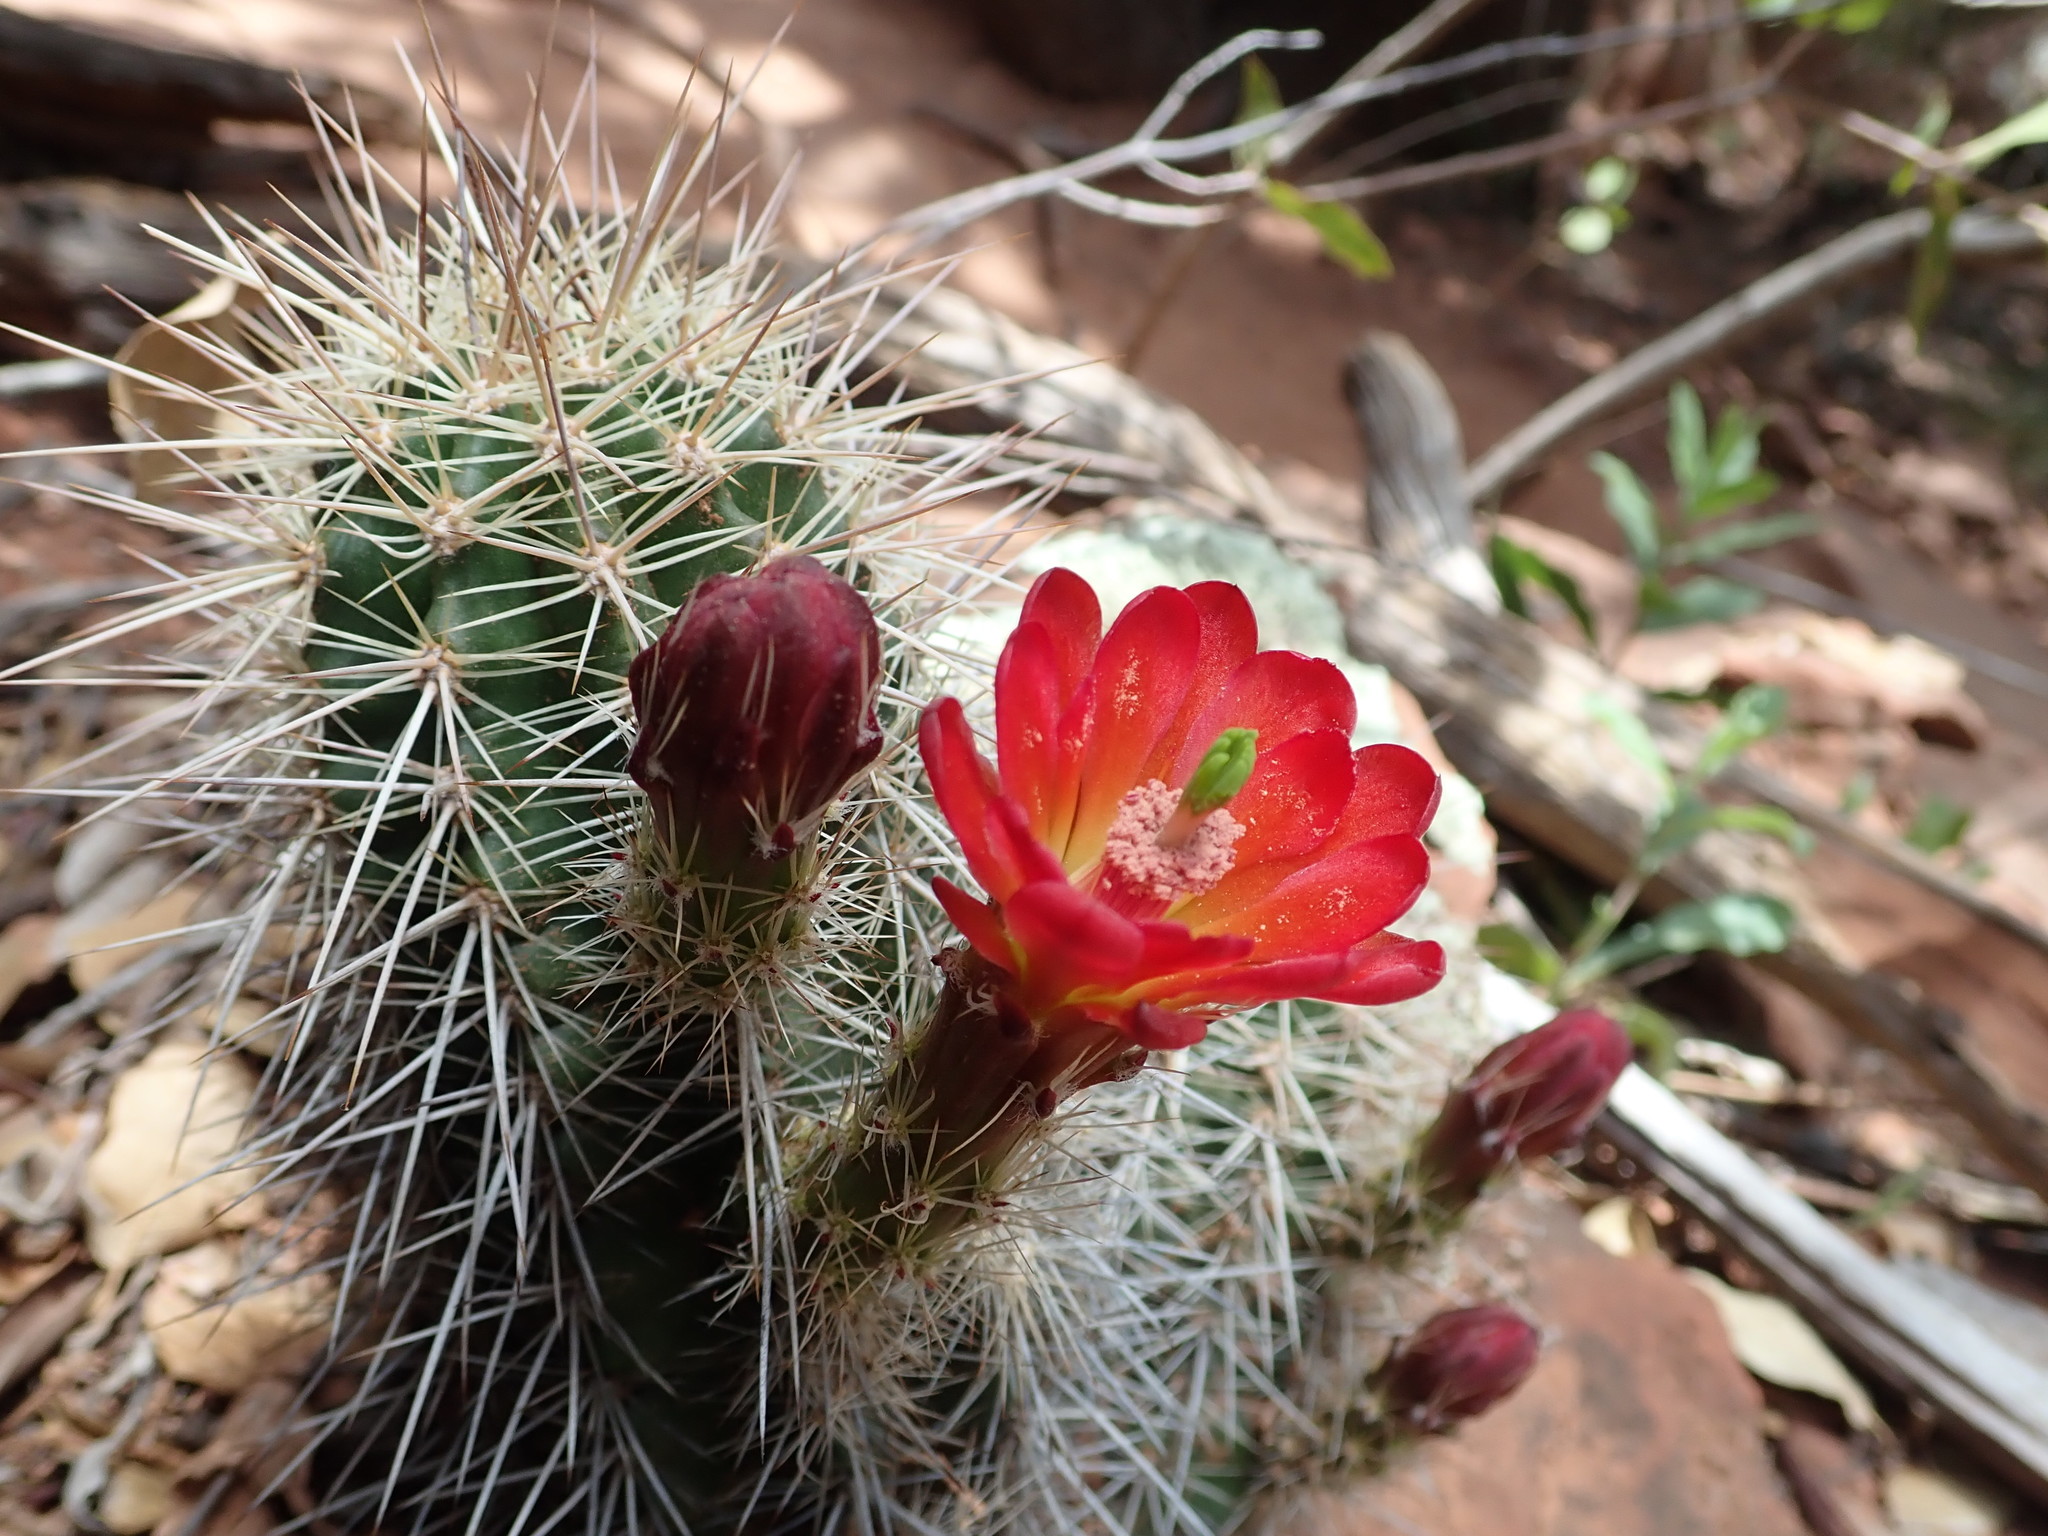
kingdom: Plantae
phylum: Tracheophyta
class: Magnoliopsida
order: Caryophyllales
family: Cactaceae
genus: Echinocereus
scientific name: Echinocereus bakeri
